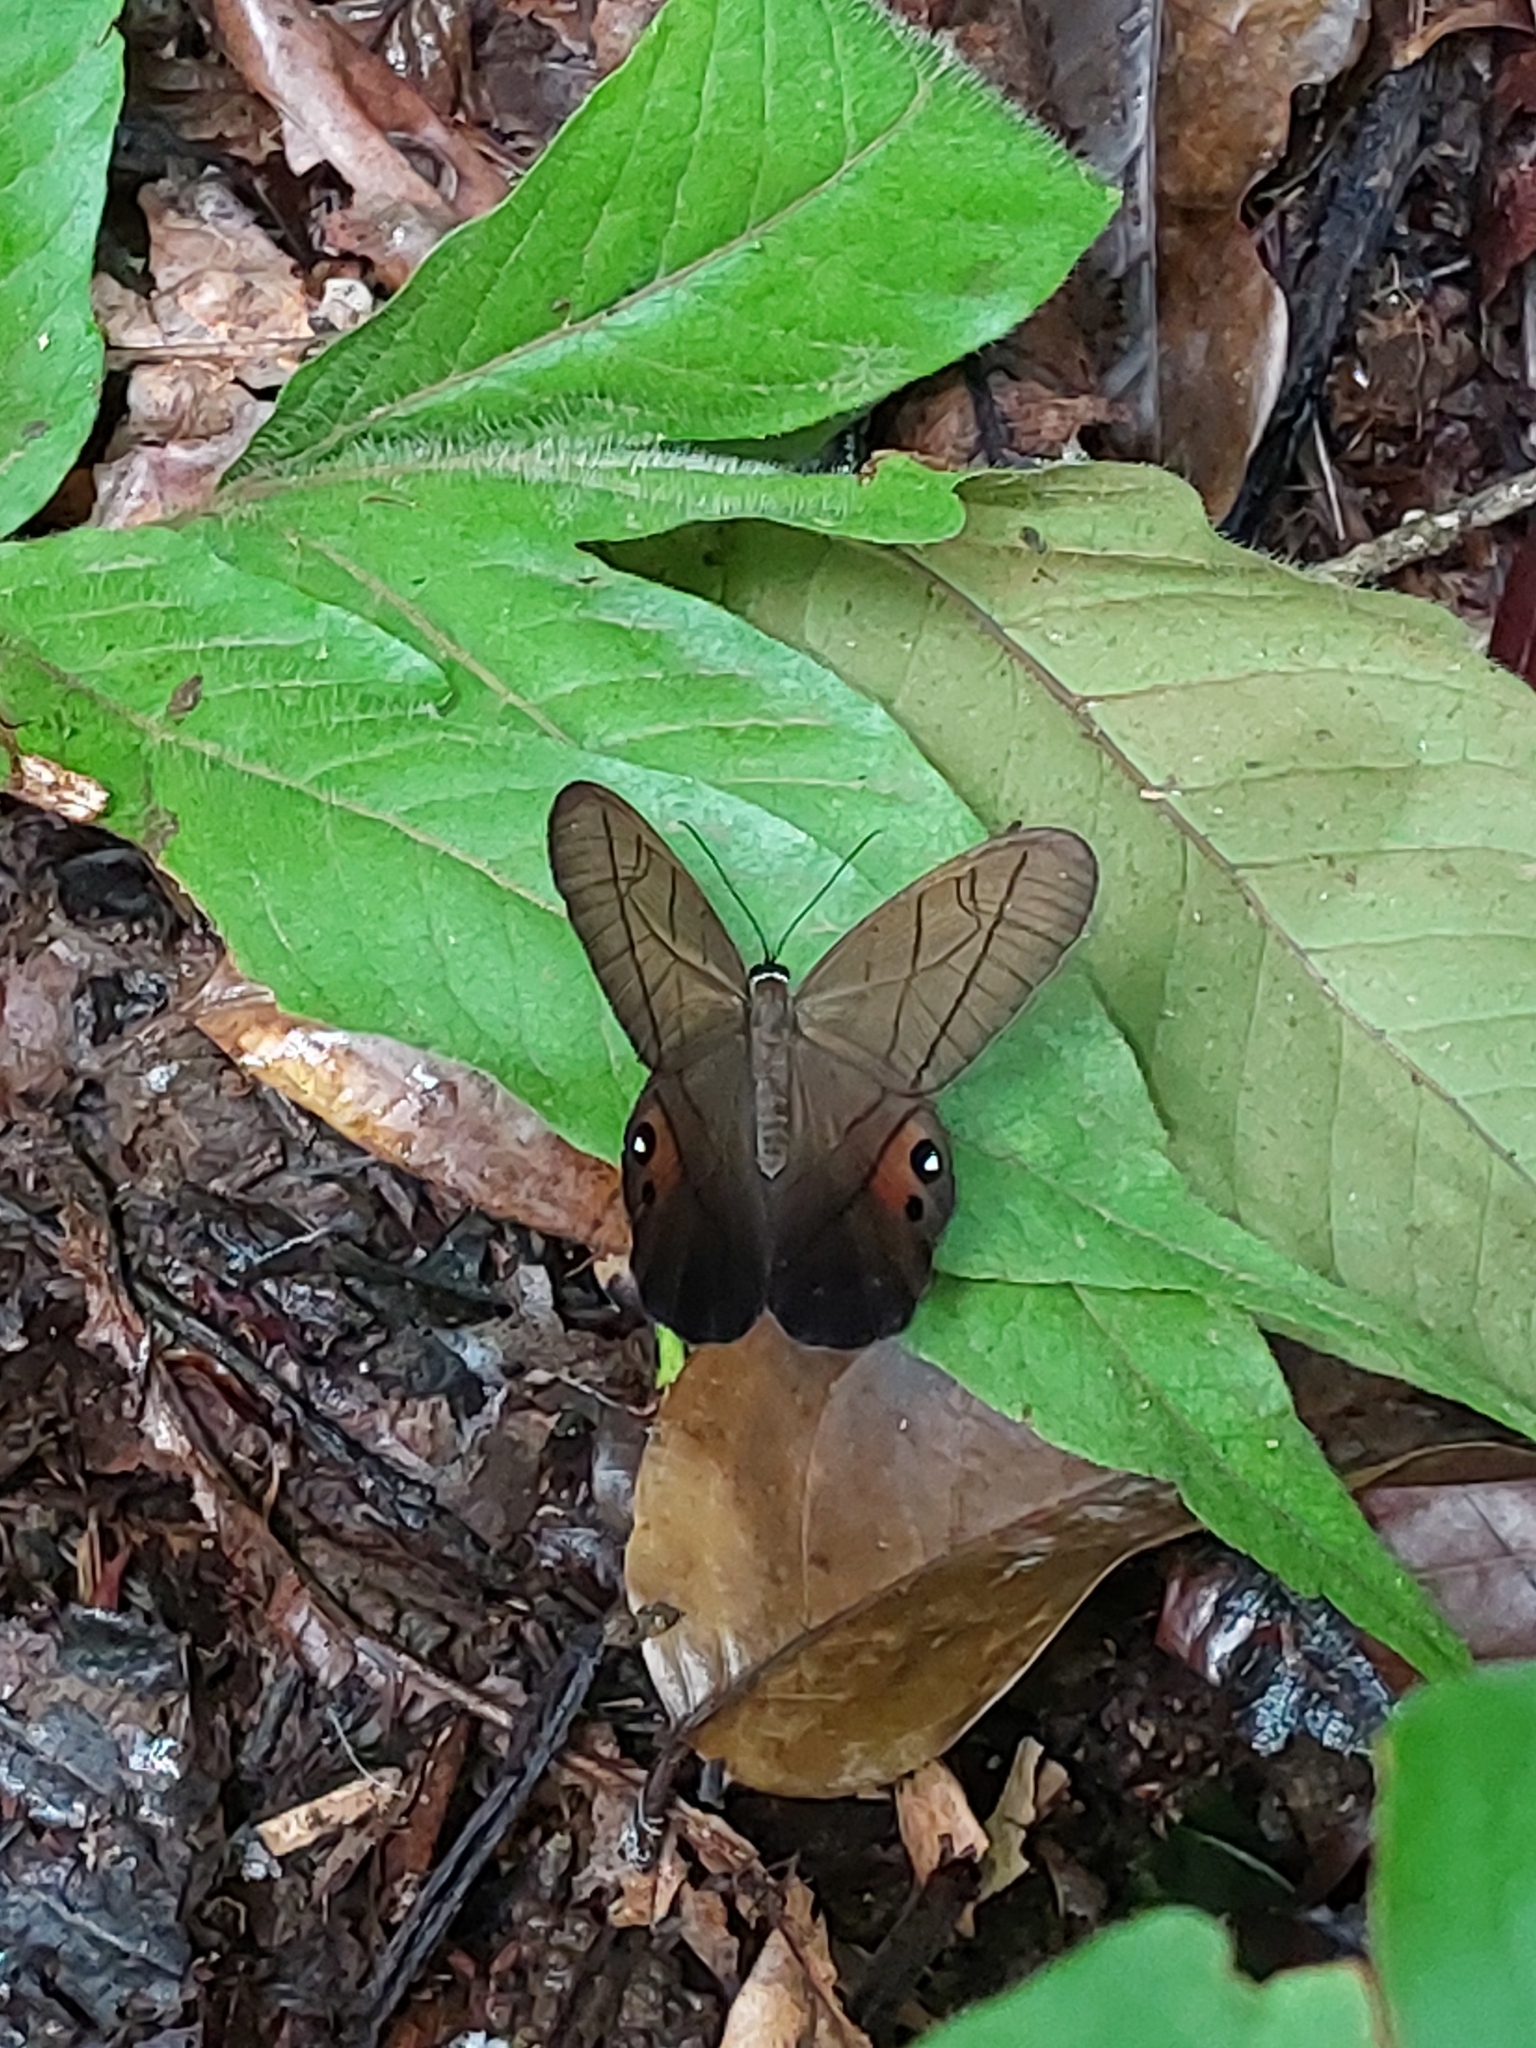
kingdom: Animalia
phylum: Arthropoda
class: Insecta
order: Lepidoptera
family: Nymphalidae
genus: Pierella
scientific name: Pierella luna
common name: Moon satyr
